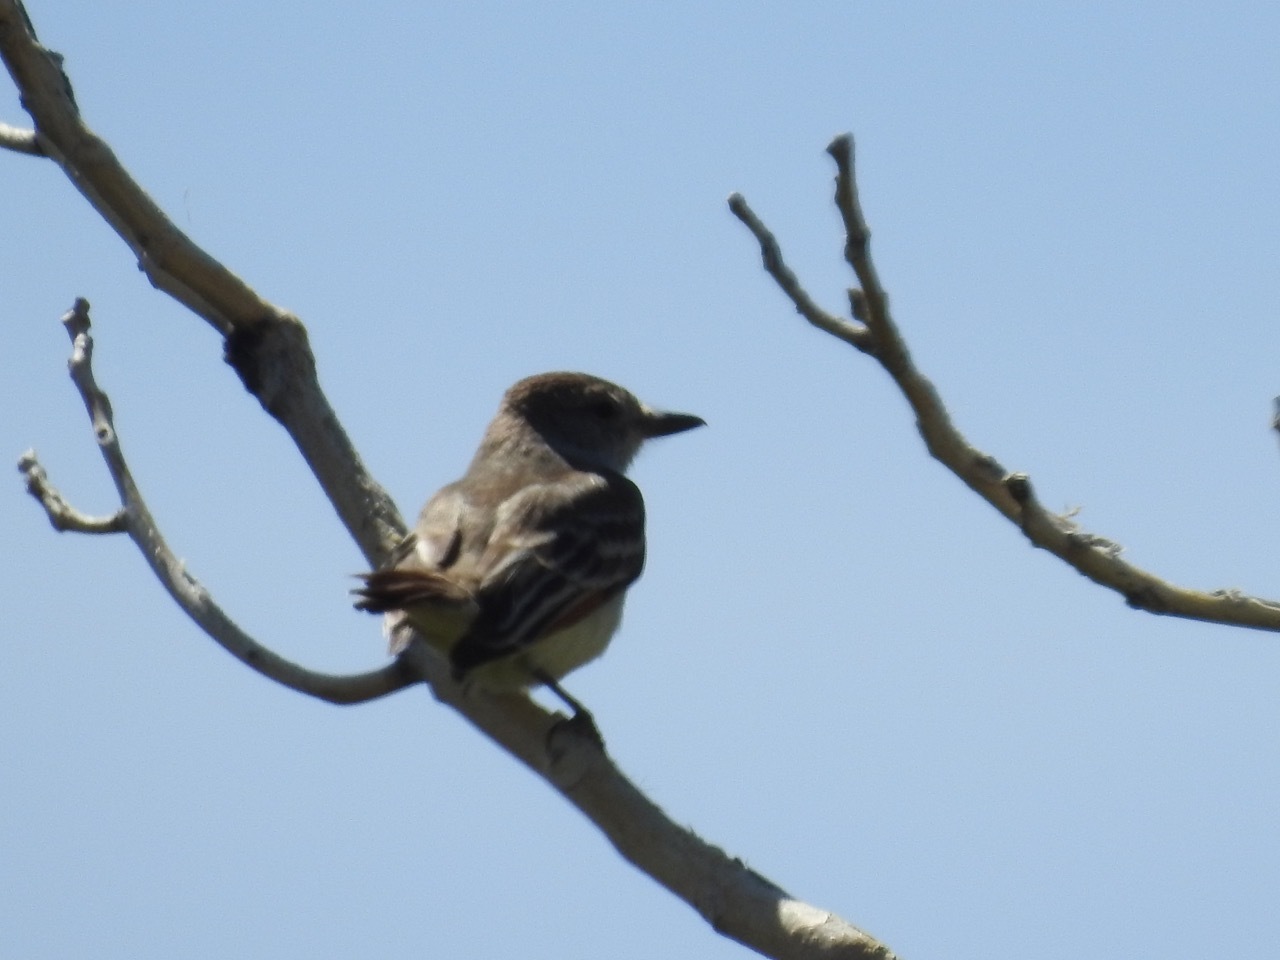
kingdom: Animalia
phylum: Chordata
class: Aves
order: Passeriformes
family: Tyrannidae
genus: Myiarchus
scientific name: Myiarchus cinerascens
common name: Ash-throated flycatcher
